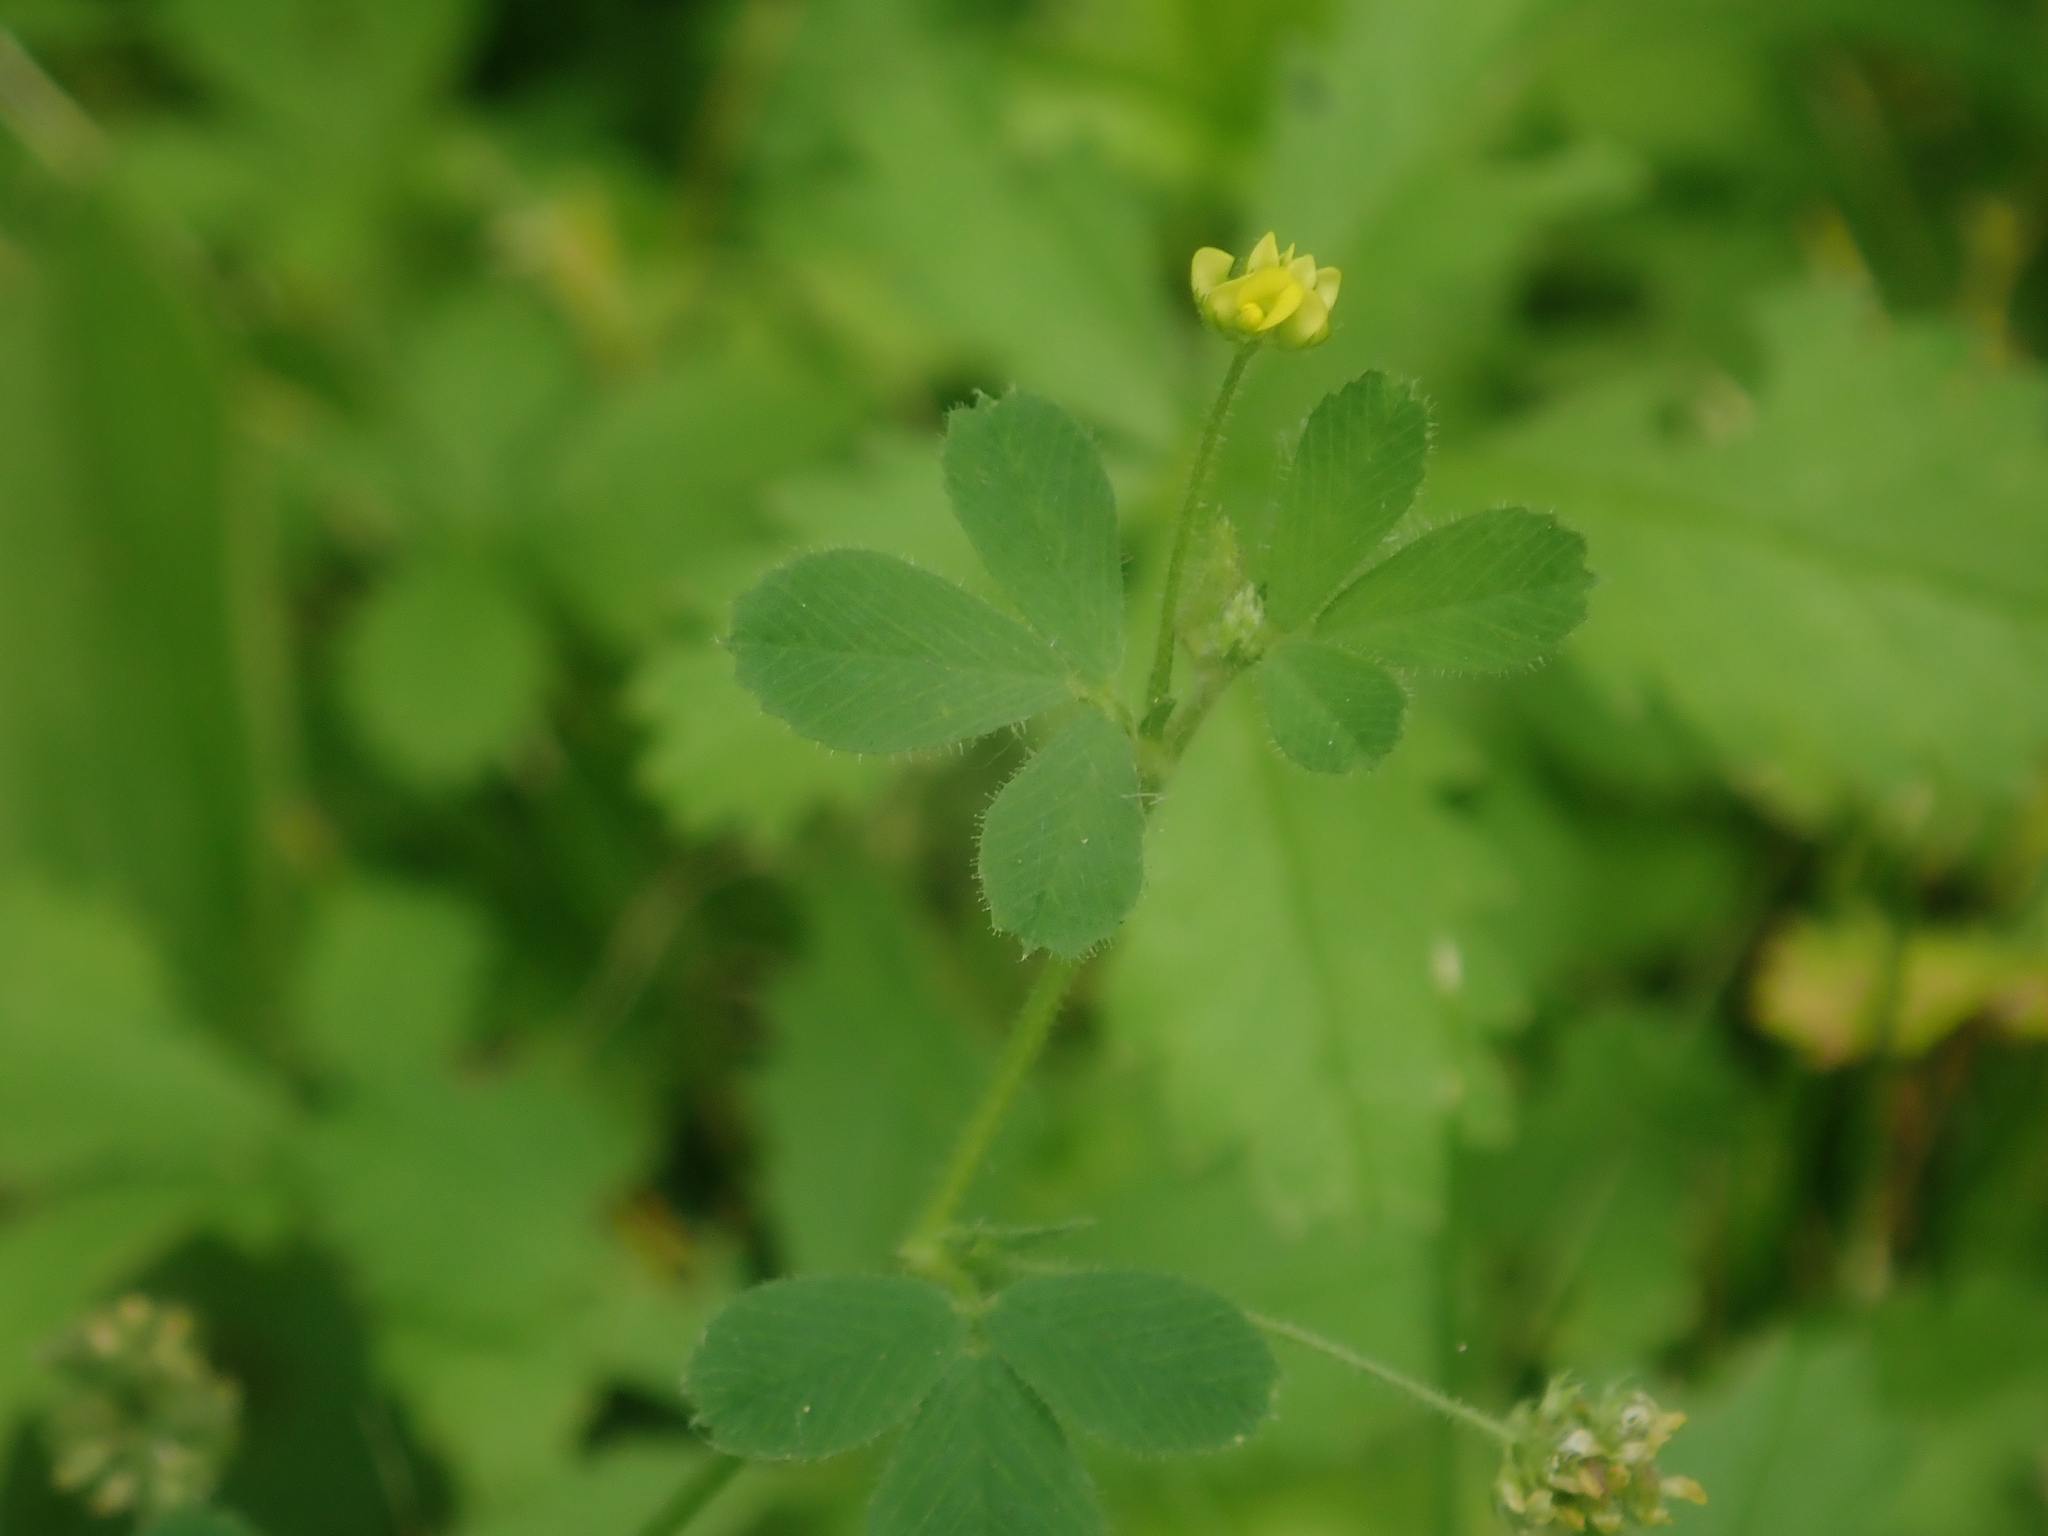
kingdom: Plantae
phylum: Tracheophyta
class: Magnoliopsida
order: Fabales
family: Fabaceae
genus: Medicago
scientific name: Medicago lupulina
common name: Black medick
